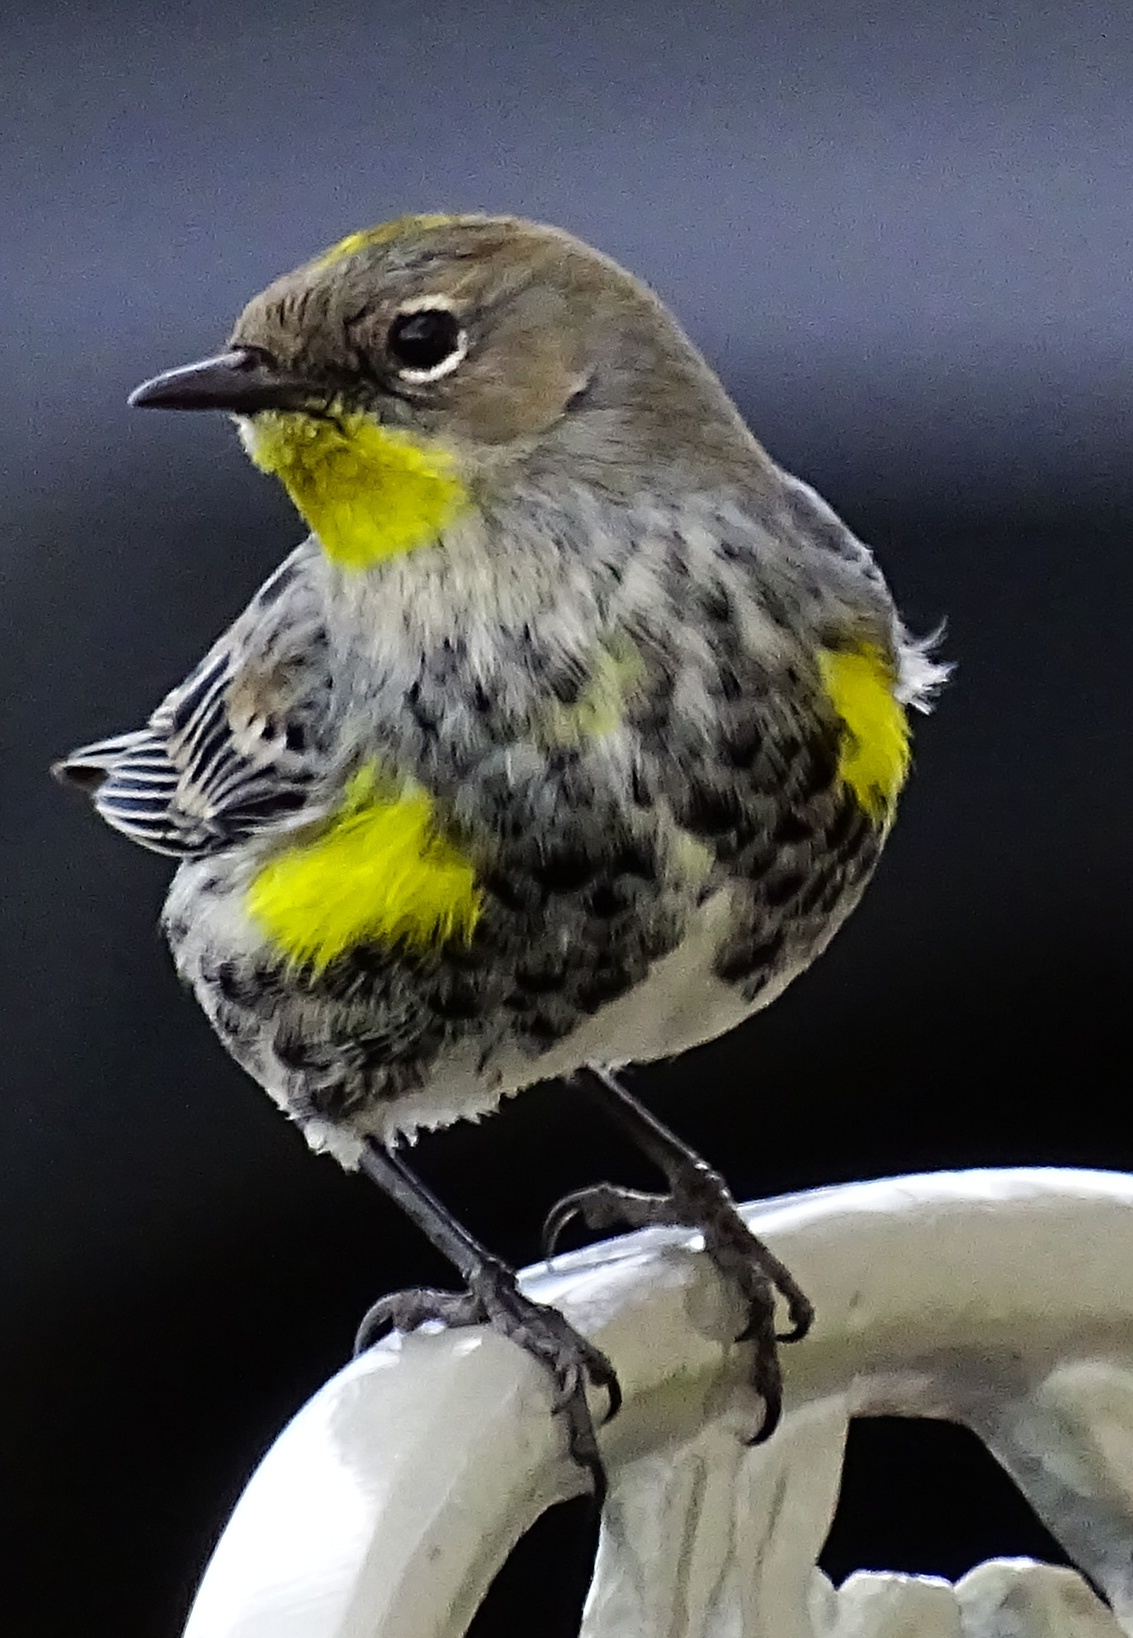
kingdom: Animalia
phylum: Chordata
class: Aves
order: Passeriformes
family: Parulidae
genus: Setophaga
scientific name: Setophaga coronata
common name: Myrtle warbler
